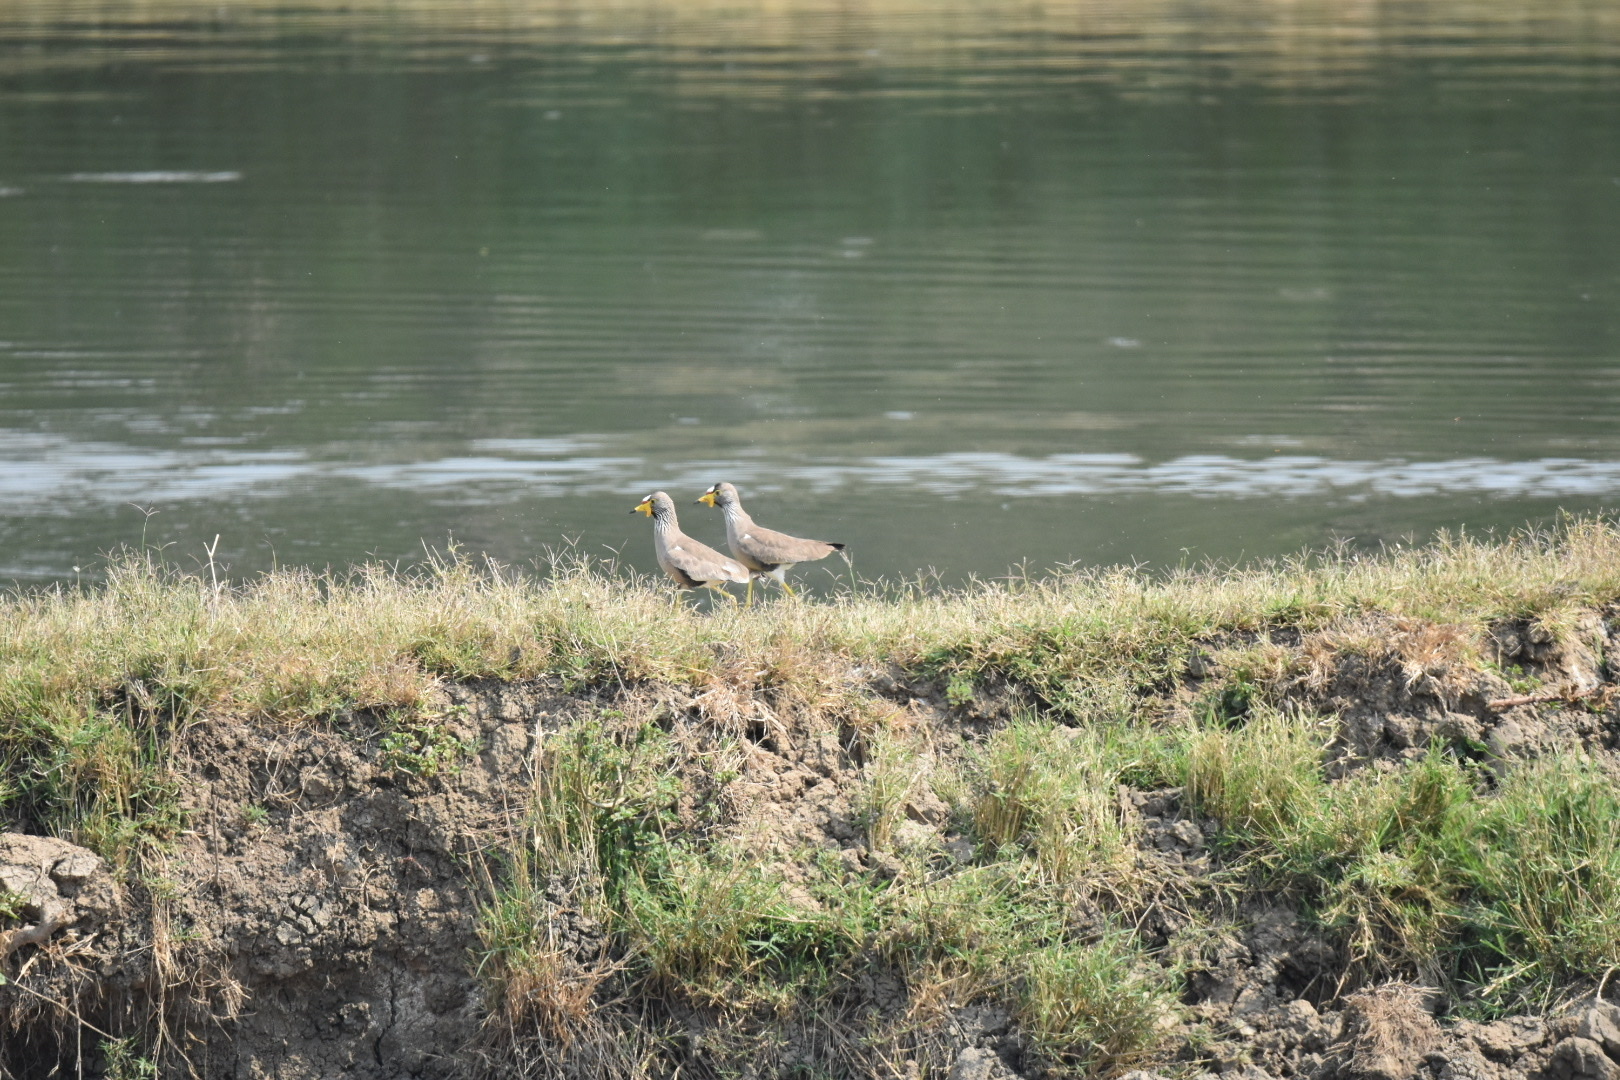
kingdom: Animalia
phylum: Chordata
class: Aves
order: Charadriiformes
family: Charadriidae
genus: Vanellus
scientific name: Vanellus senegallus
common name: African wattled lapwing
